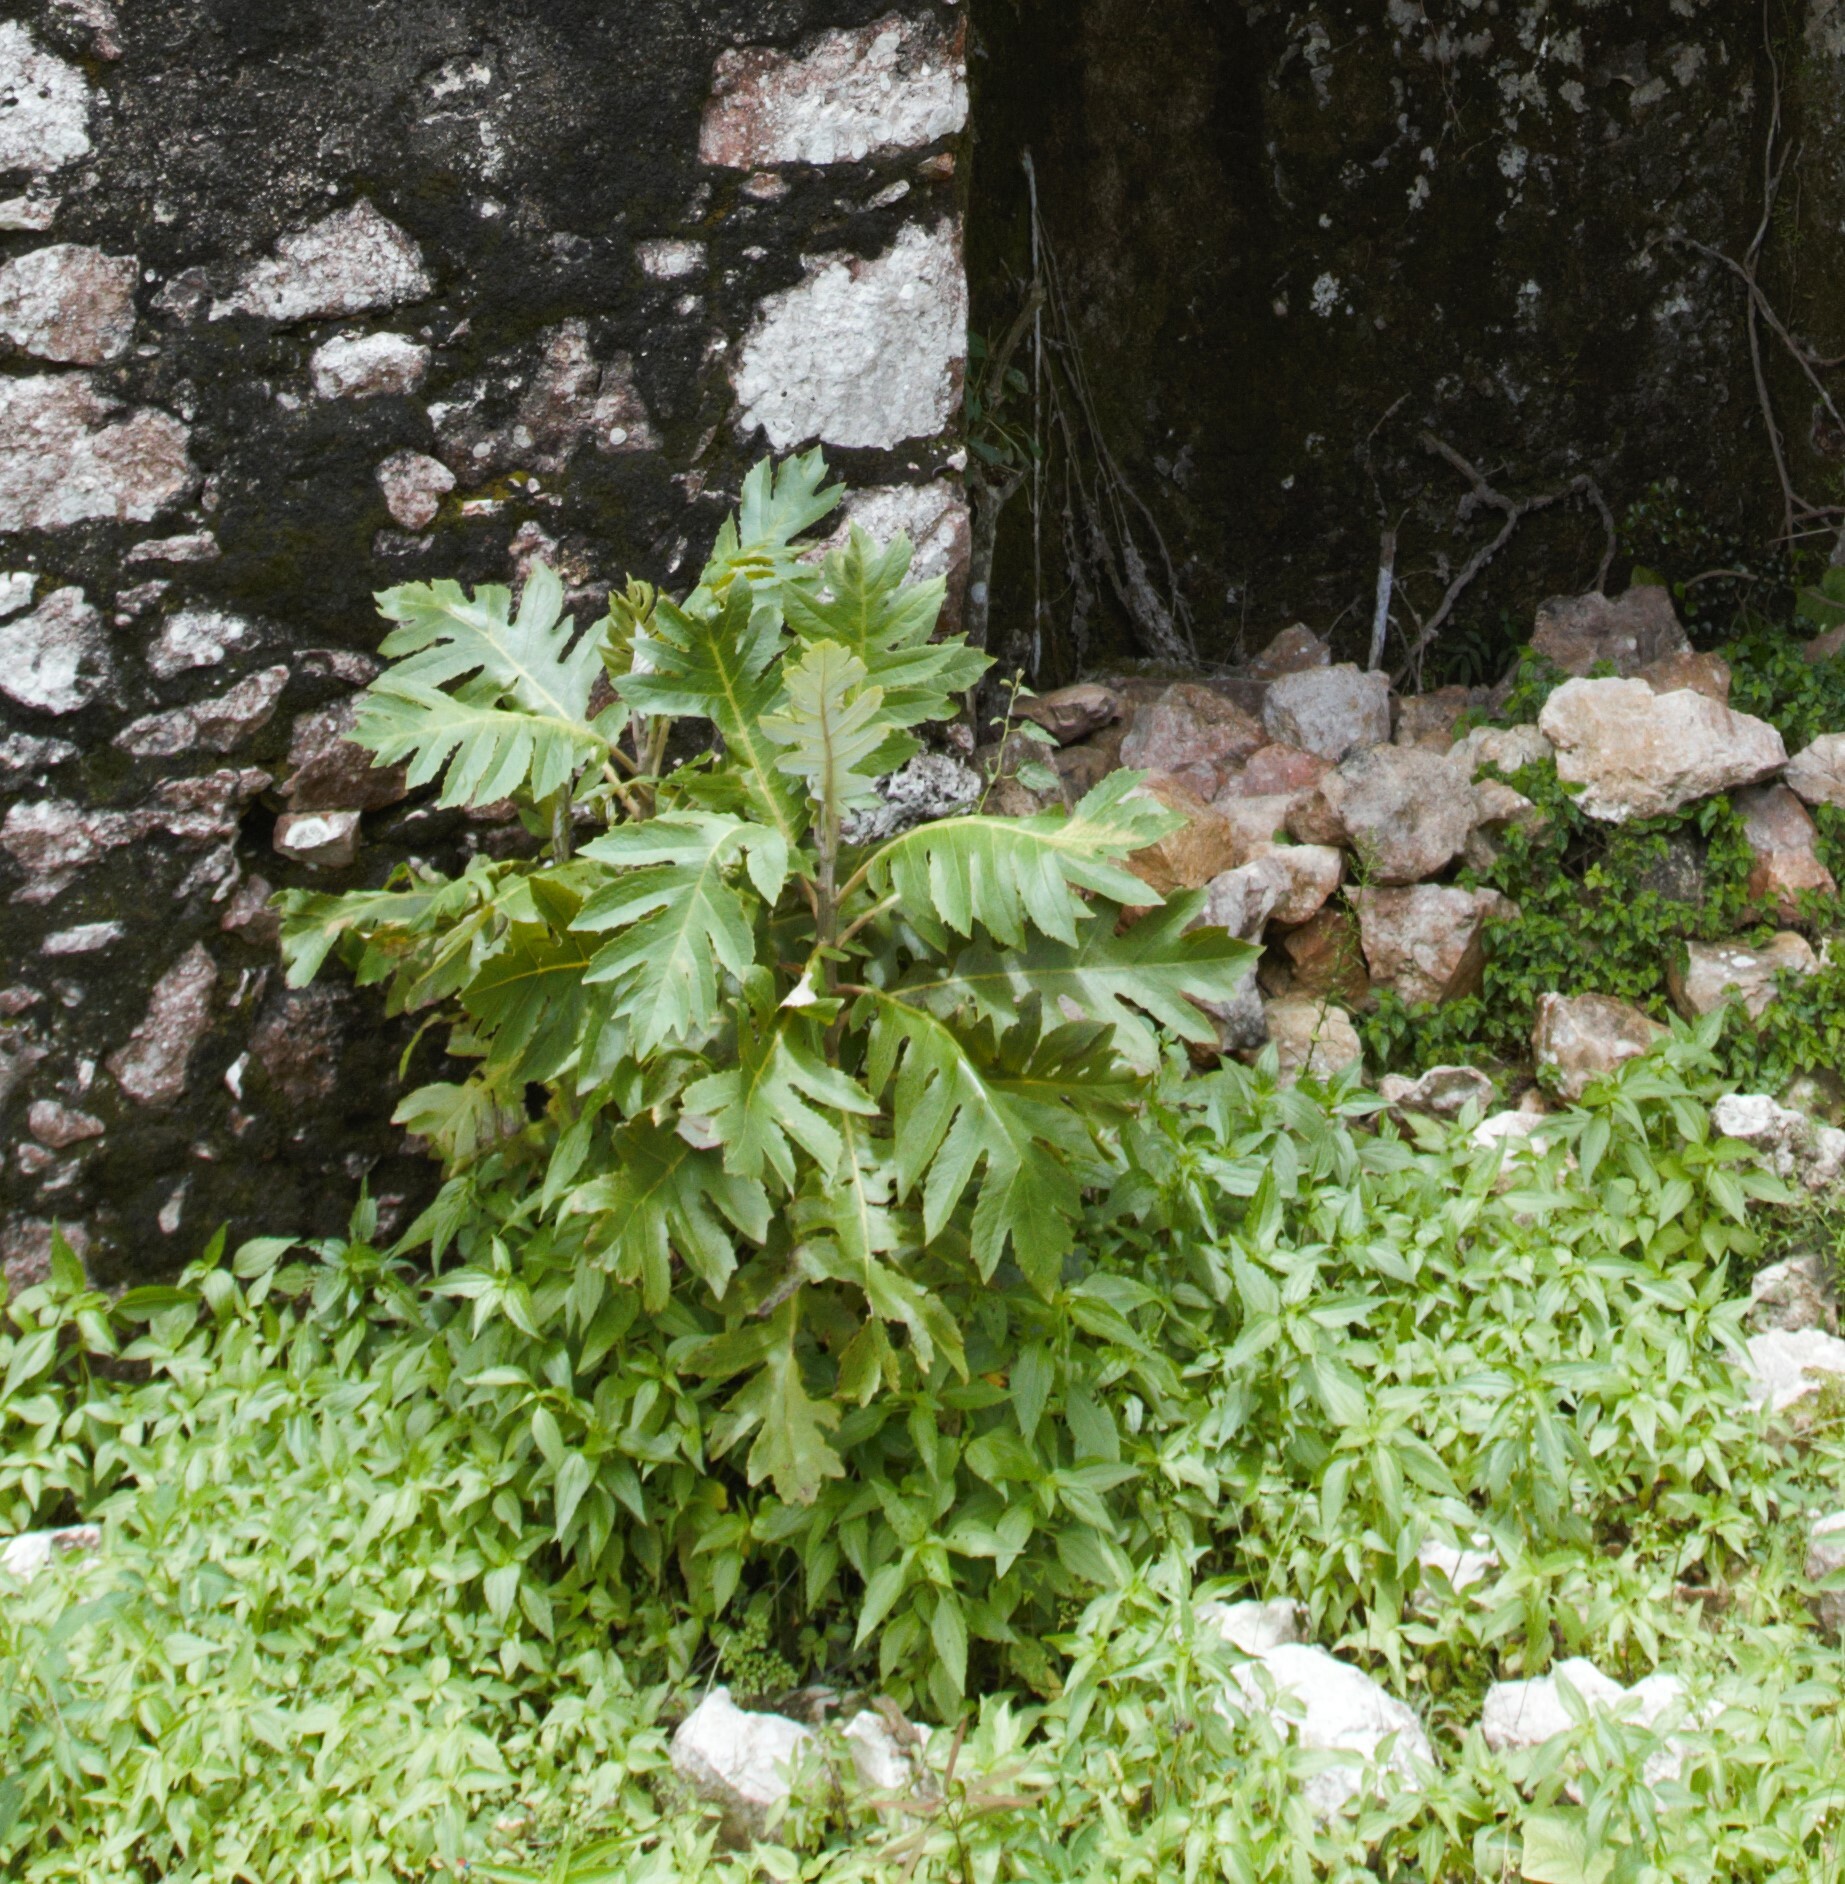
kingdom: Plantae
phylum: Tracheophyta
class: Magnoliopsida
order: Ranunculales
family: Papaveraceae
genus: Bocconia
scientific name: Bocconia frutescens
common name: Tree poppy
